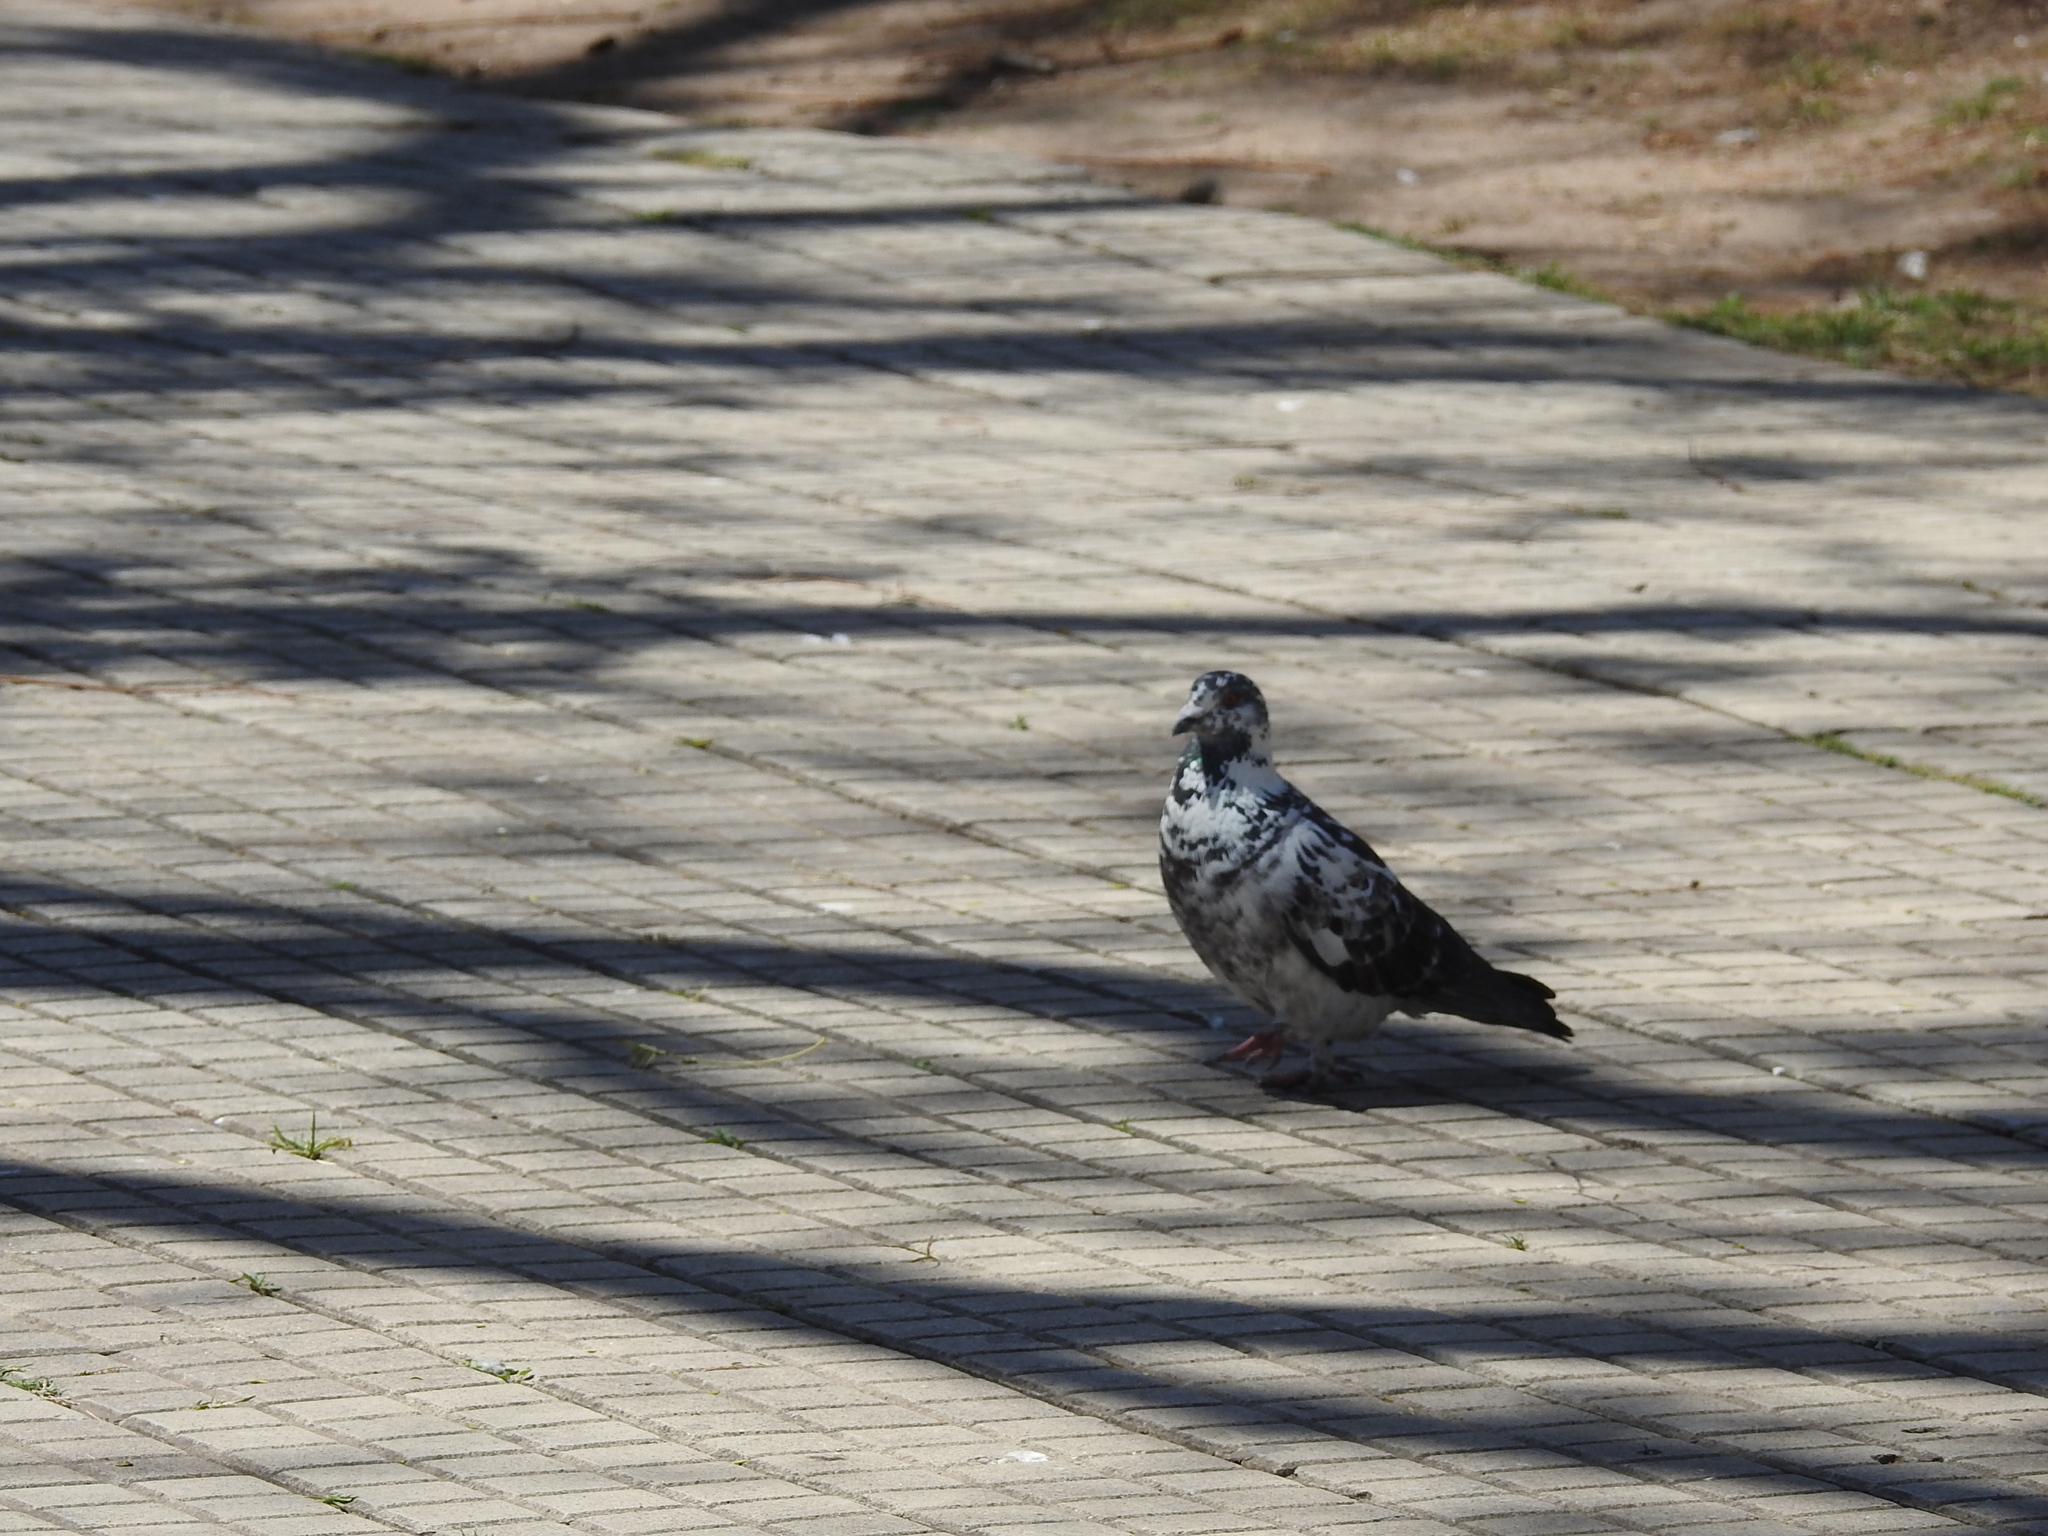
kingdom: Animalia
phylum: Chordata
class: Aves
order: Columbiformes
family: Columbidae
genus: Columba
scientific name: Columba livia
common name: Rock pigeon
